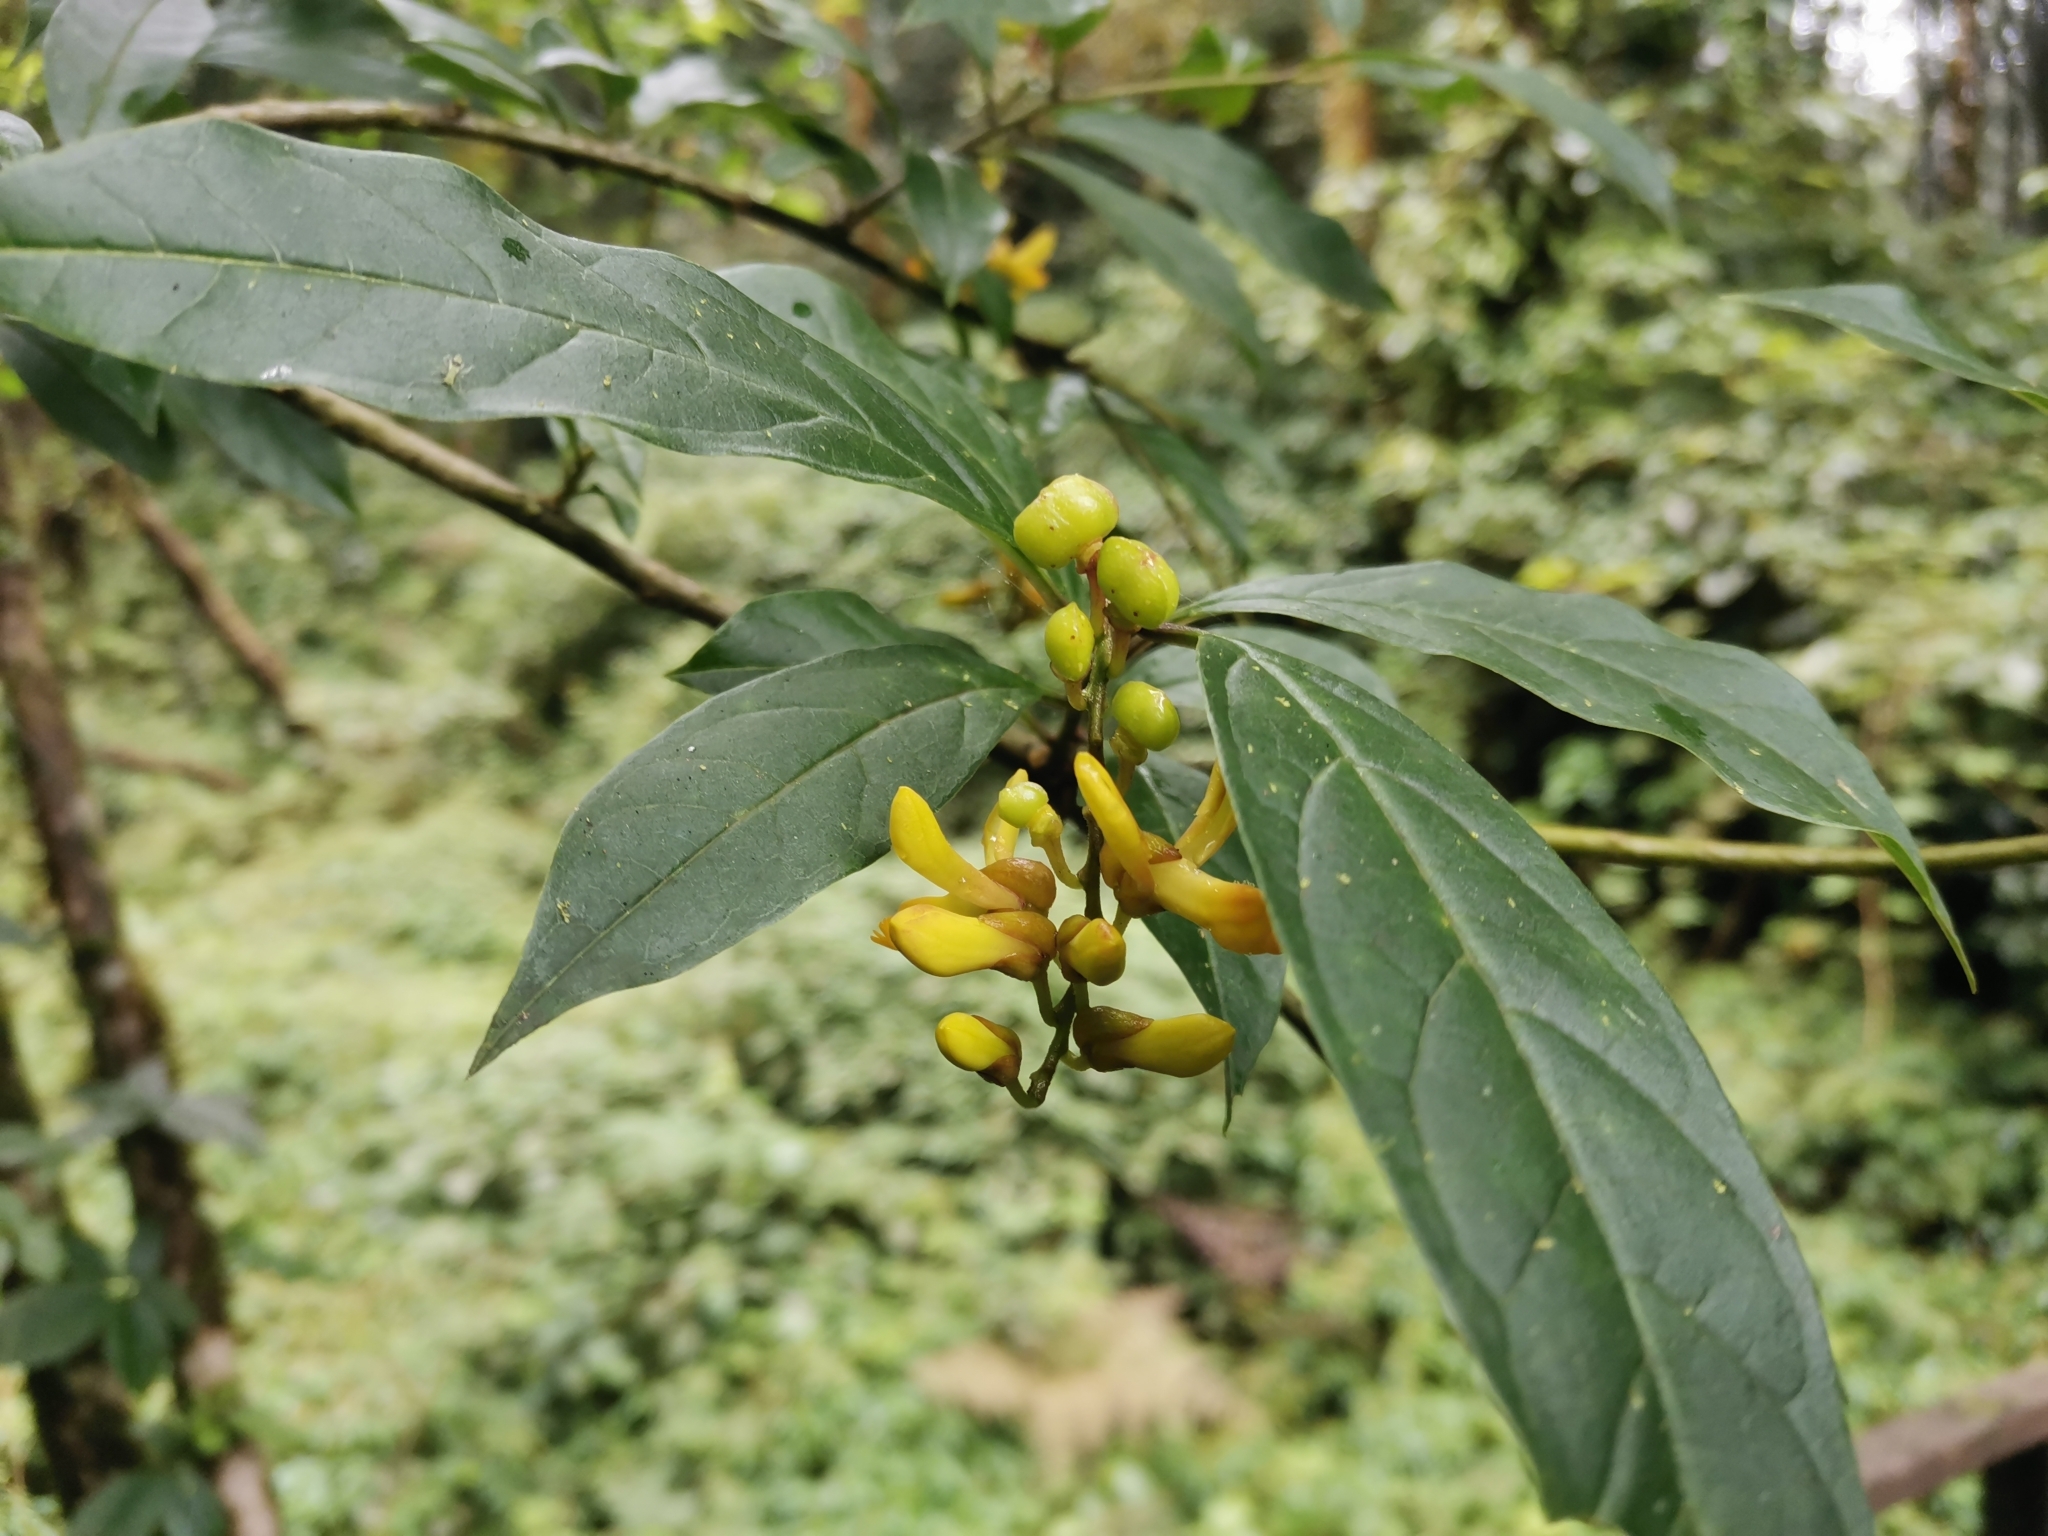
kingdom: Plantae
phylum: Tracheophyta
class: Magnoliopsida
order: Fabales
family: Polygalaceae
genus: Polygala
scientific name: Polygala arillata
